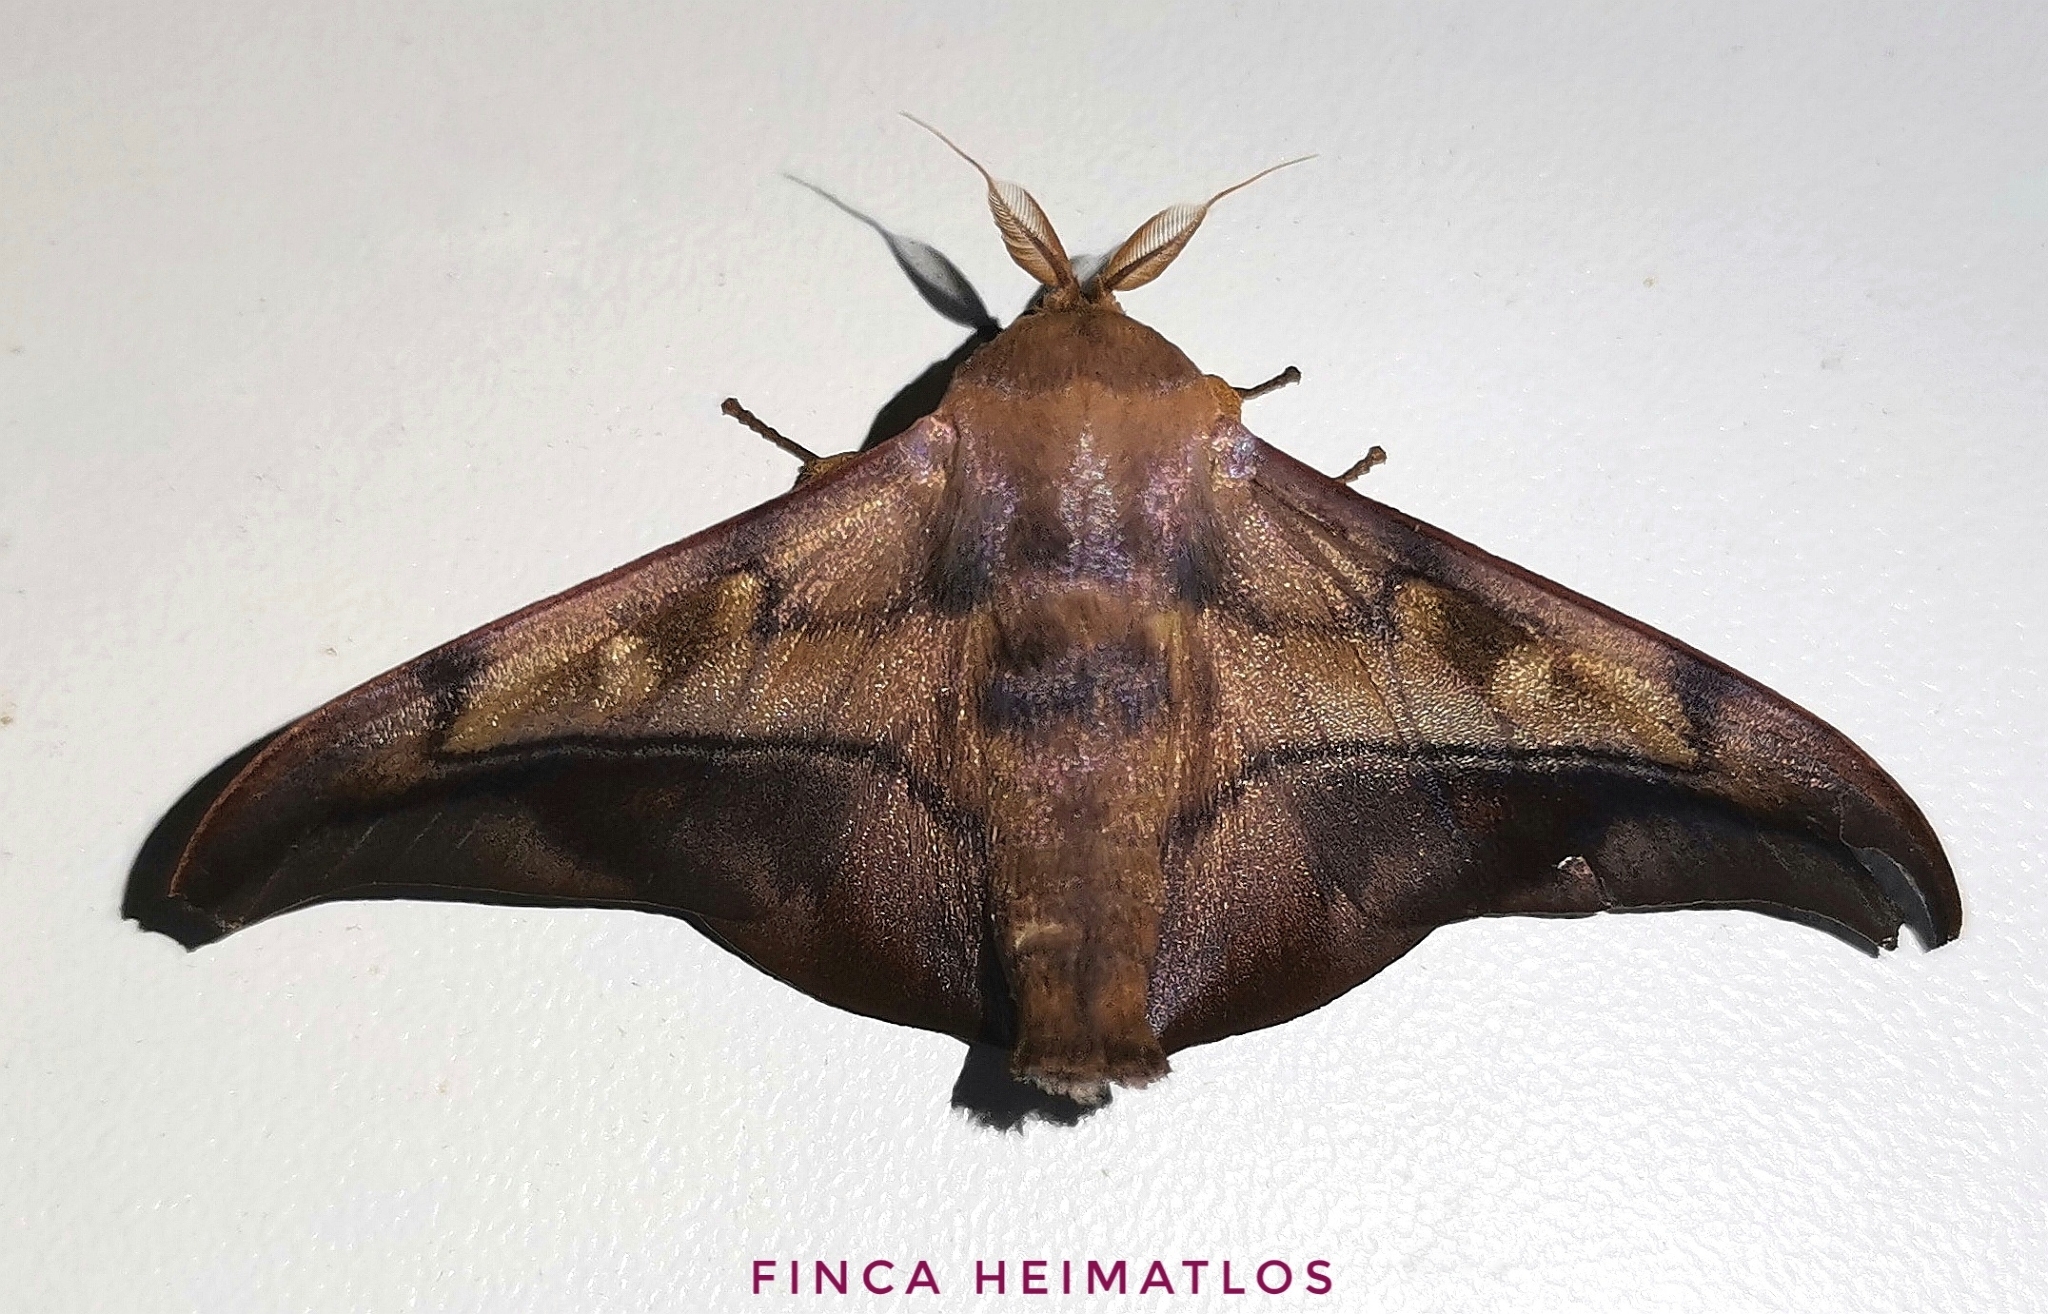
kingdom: Animalia
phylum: Arthropoda
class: Insecta
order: Lepidoptera
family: Mimallonidae
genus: Cicinnus
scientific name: Cicinnus anysia
